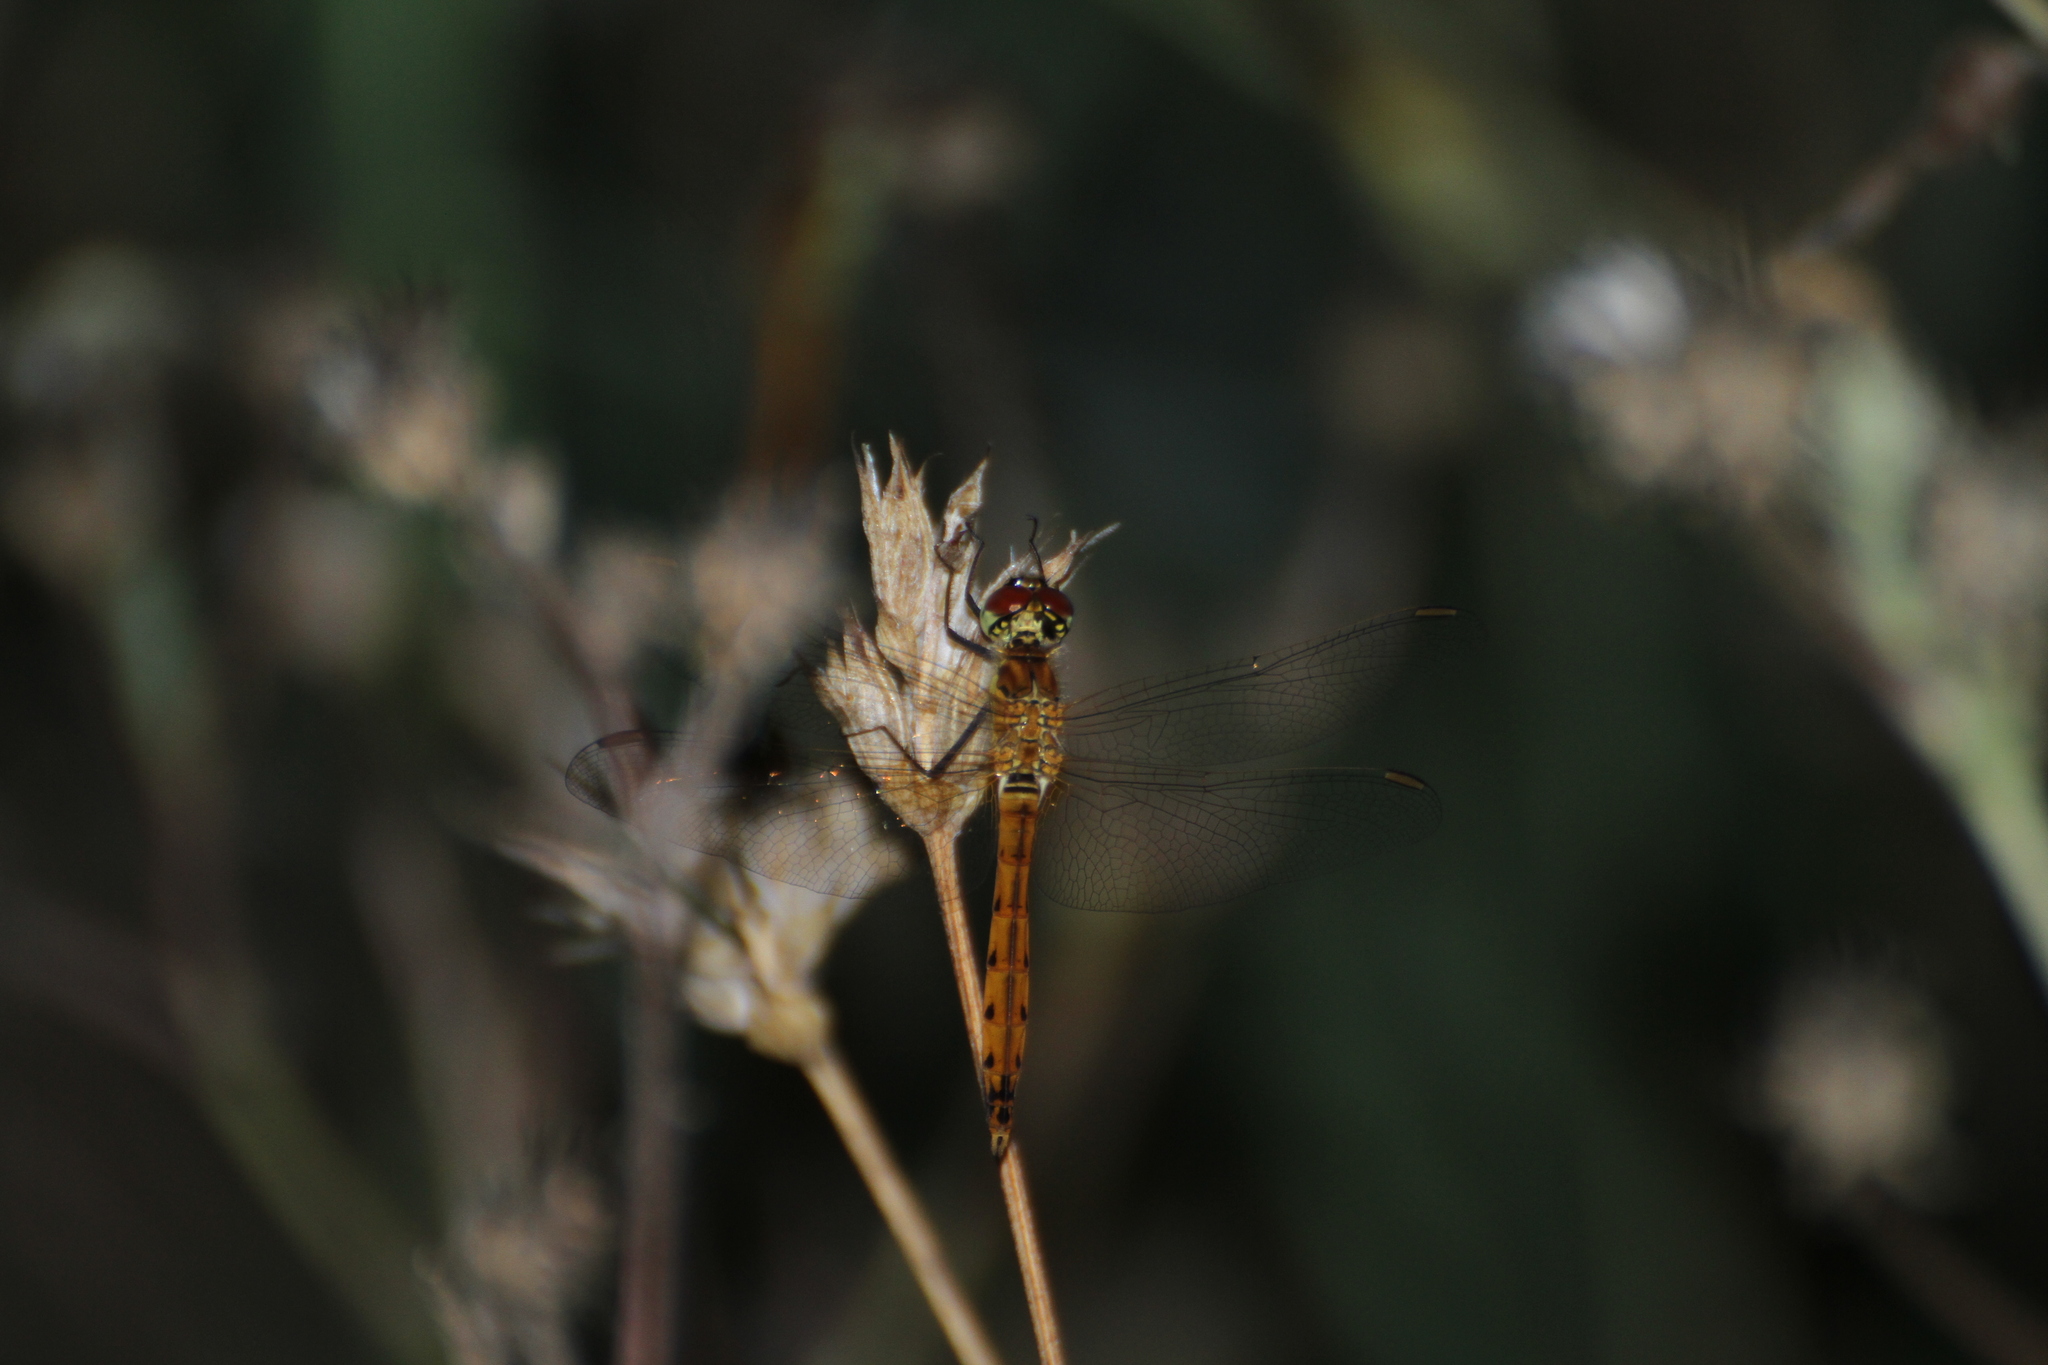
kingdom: Animalia
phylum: Arthropoda
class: Insecta
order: Odonata
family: Libellulidae
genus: Sympetrum
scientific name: Sympetrum depressiusculum
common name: Spotted darter
